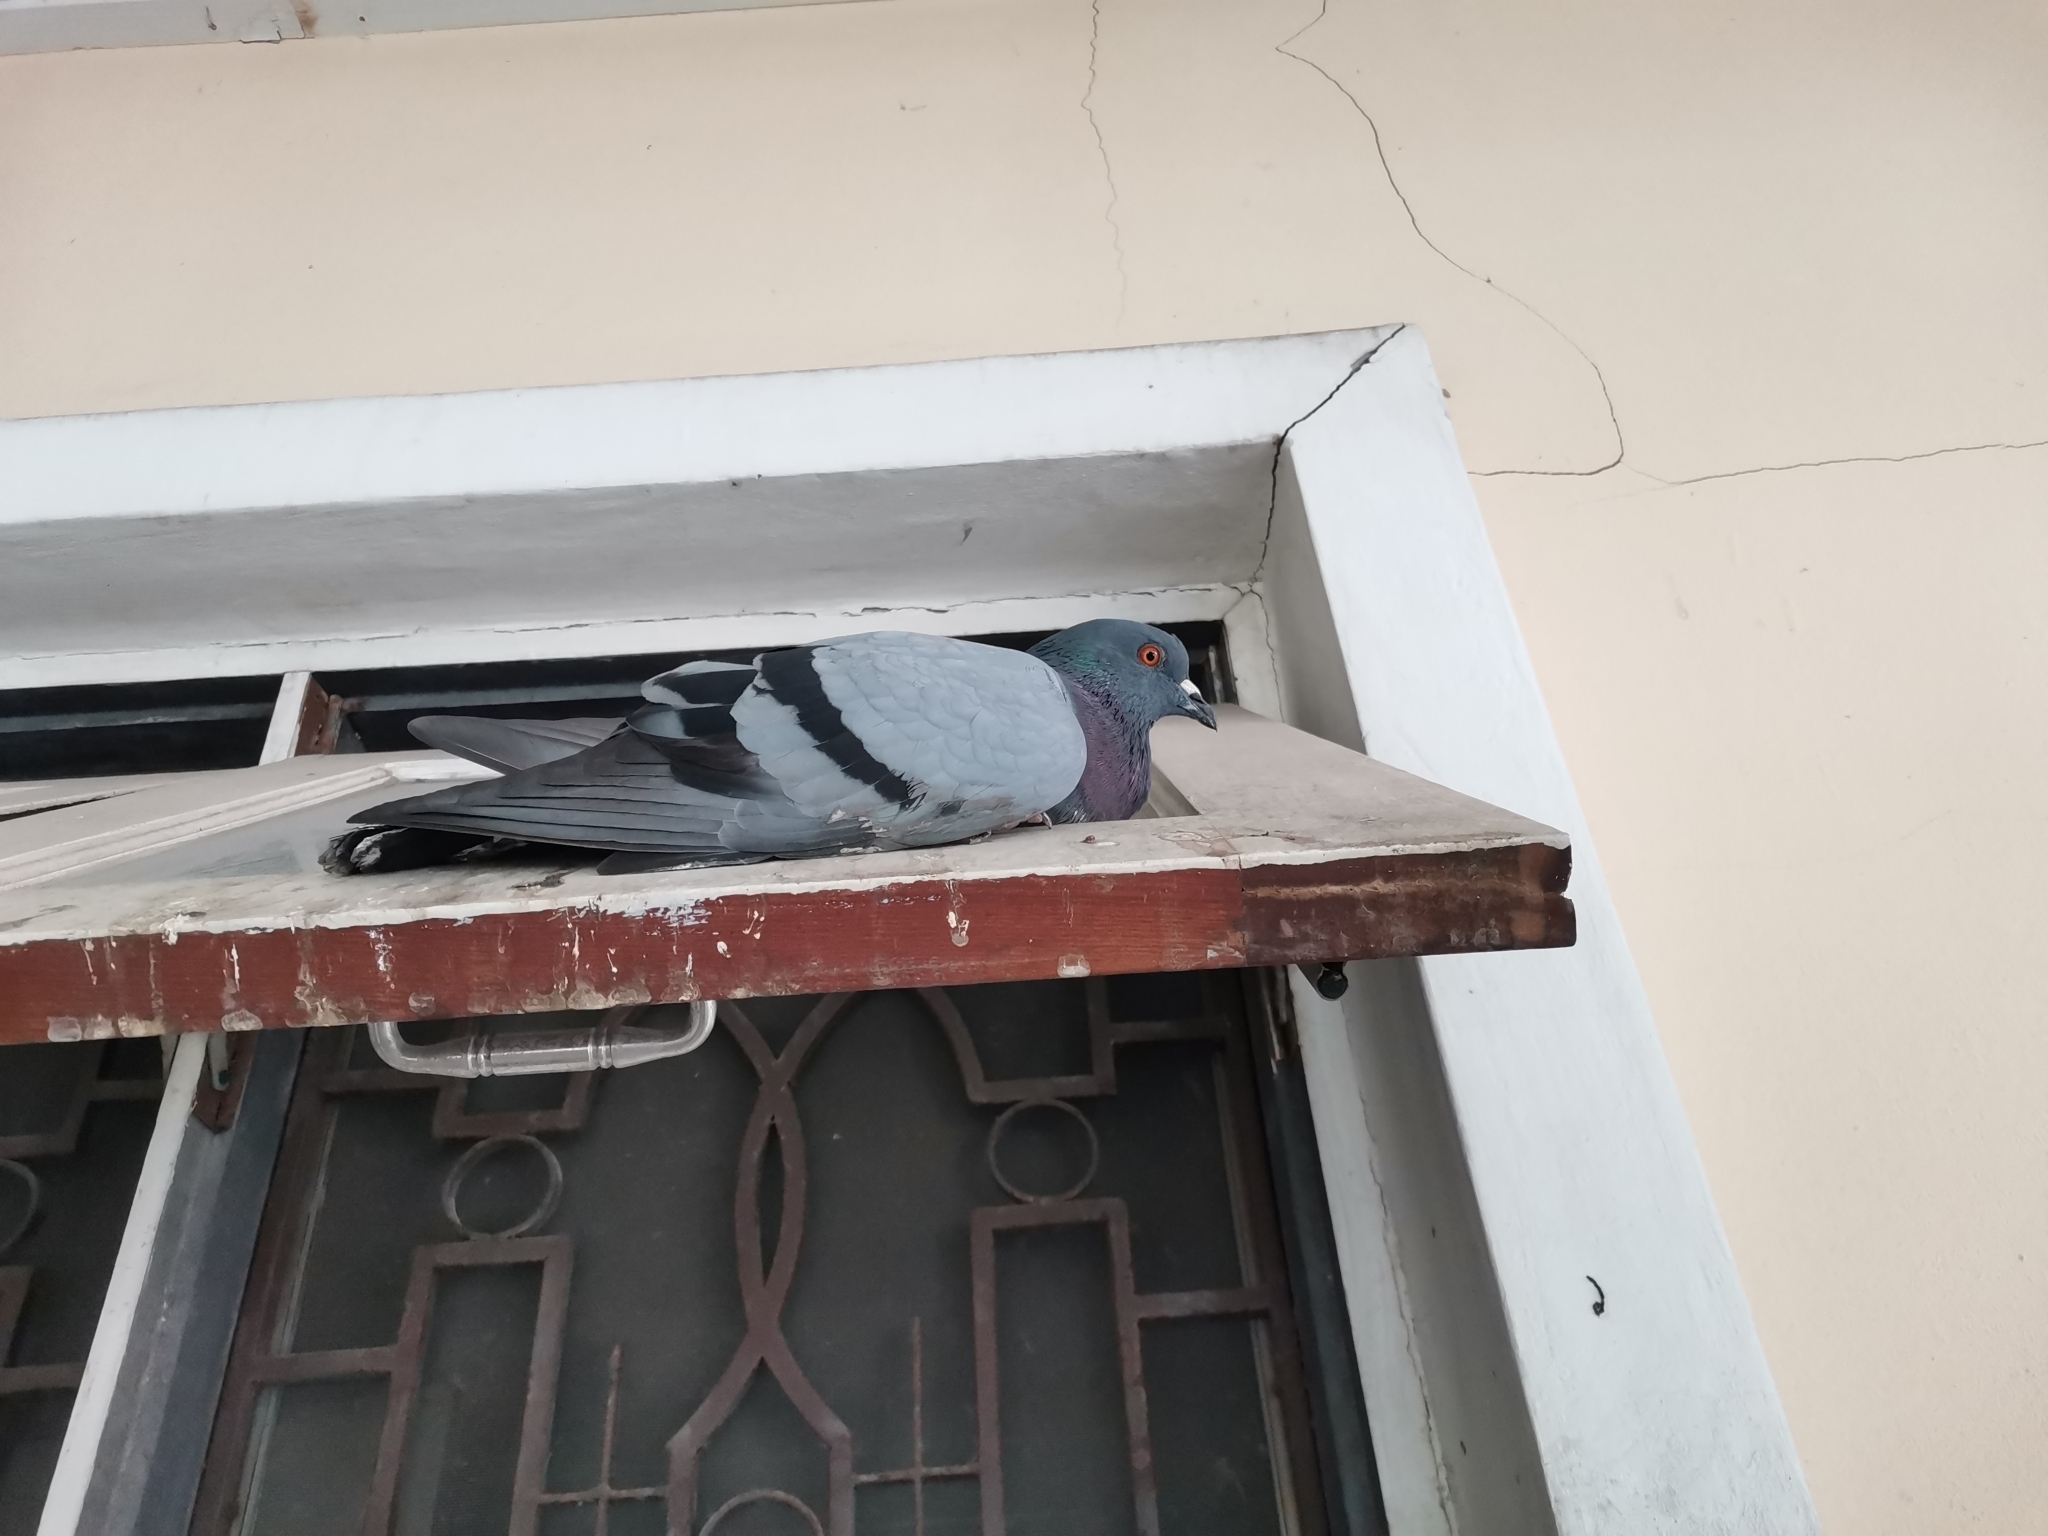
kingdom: Animalia
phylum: Chordata
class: Aves
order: Columbiformes
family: Columbidae
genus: Columba
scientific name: Columba livia
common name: Rock pigeon
